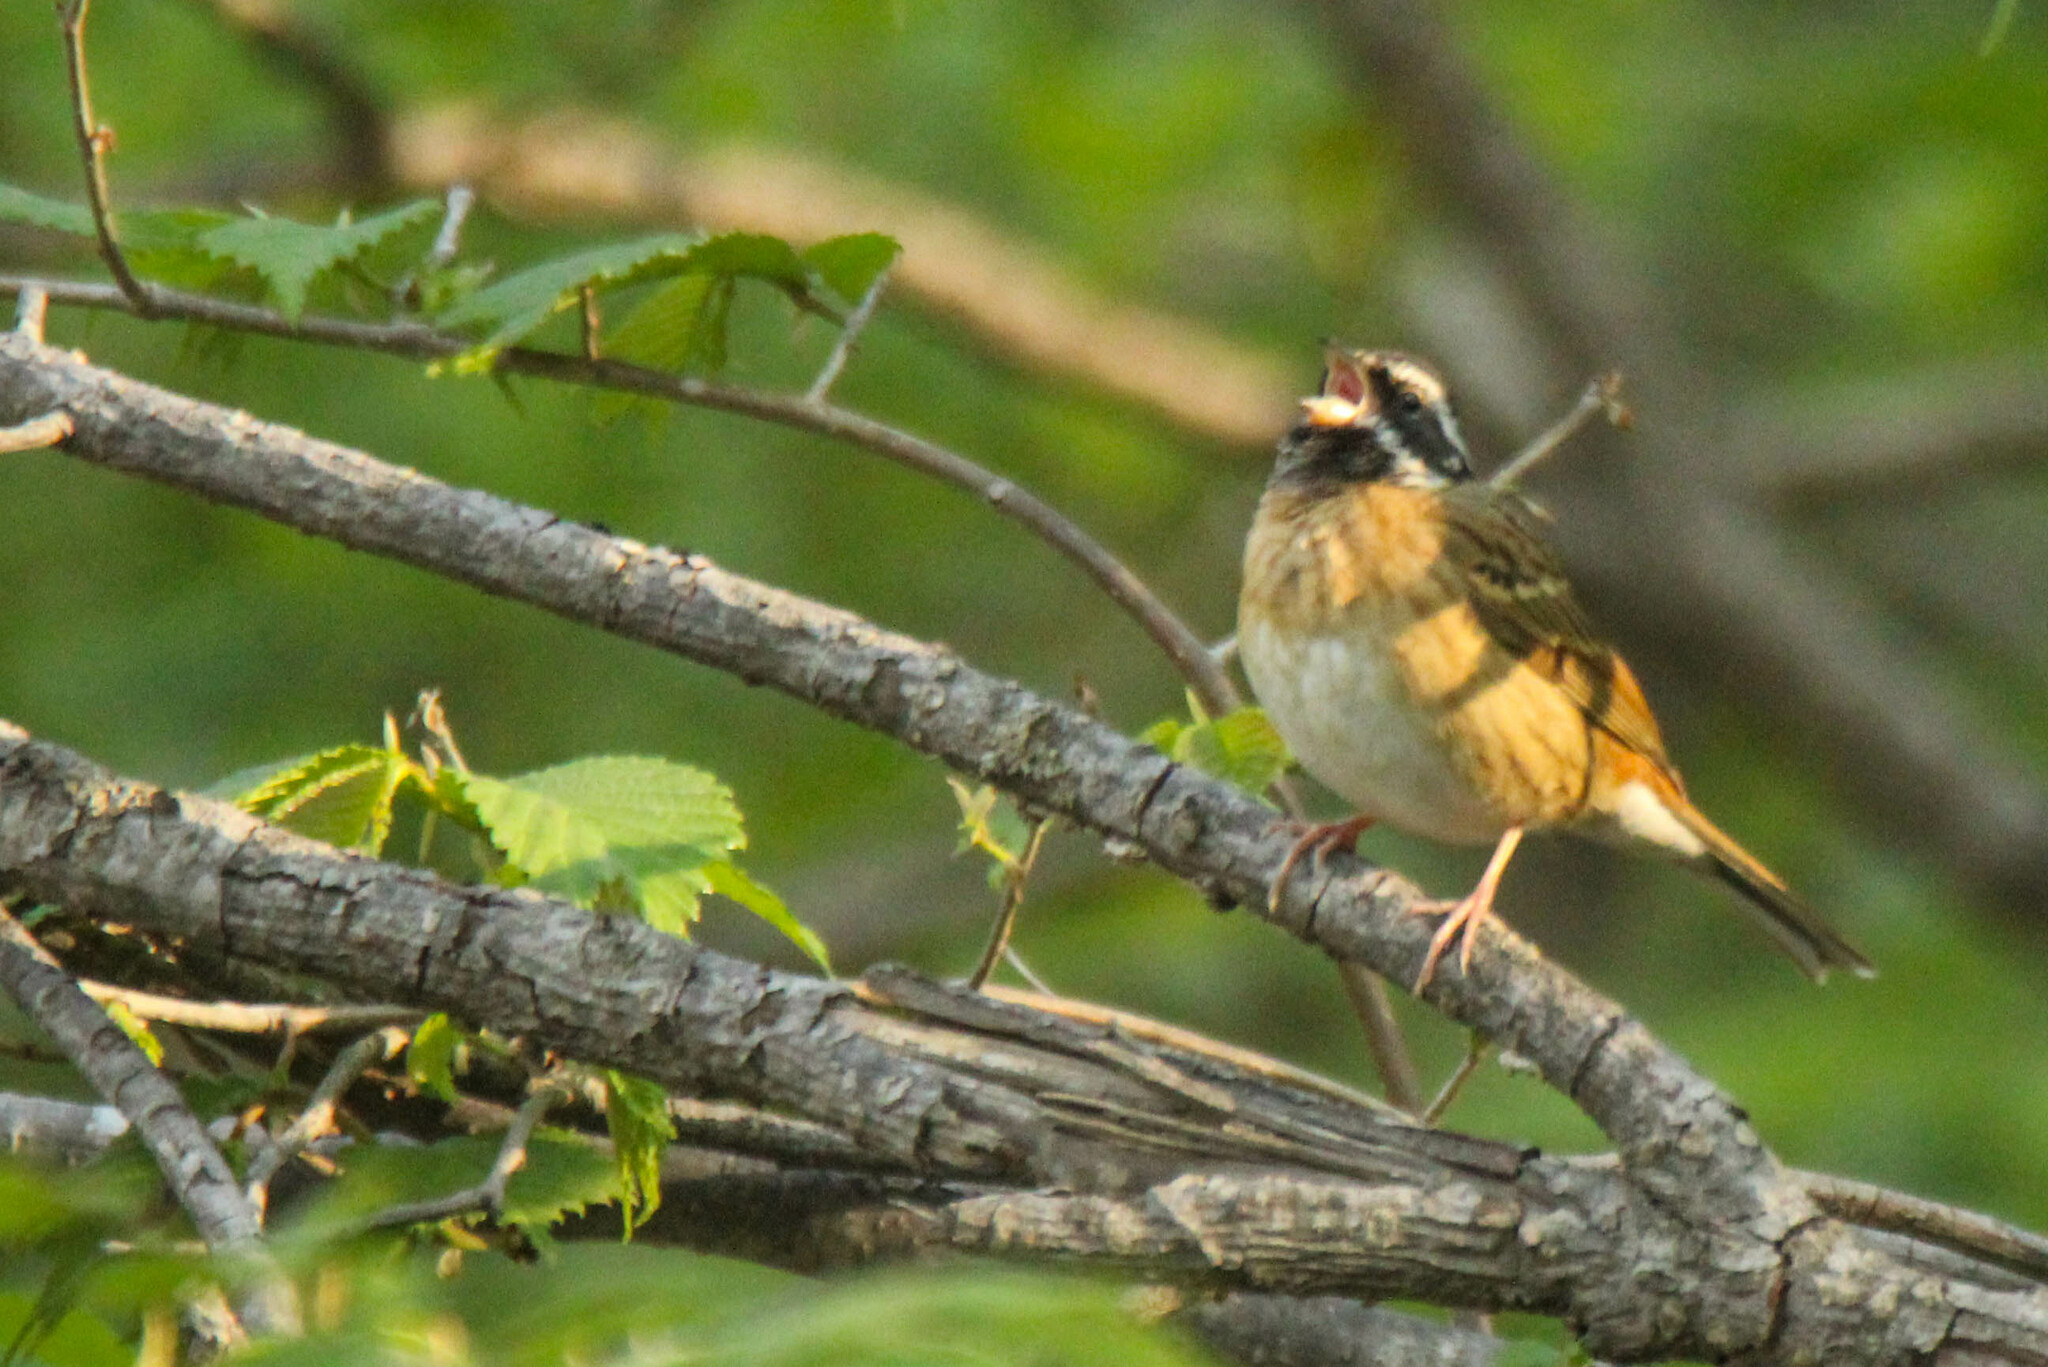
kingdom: Animalia
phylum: Chordata
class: Aves
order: Passeriformes
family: Emberizidae
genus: Emberiza
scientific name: Emberiza tristrami
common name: Tristram's bunting
